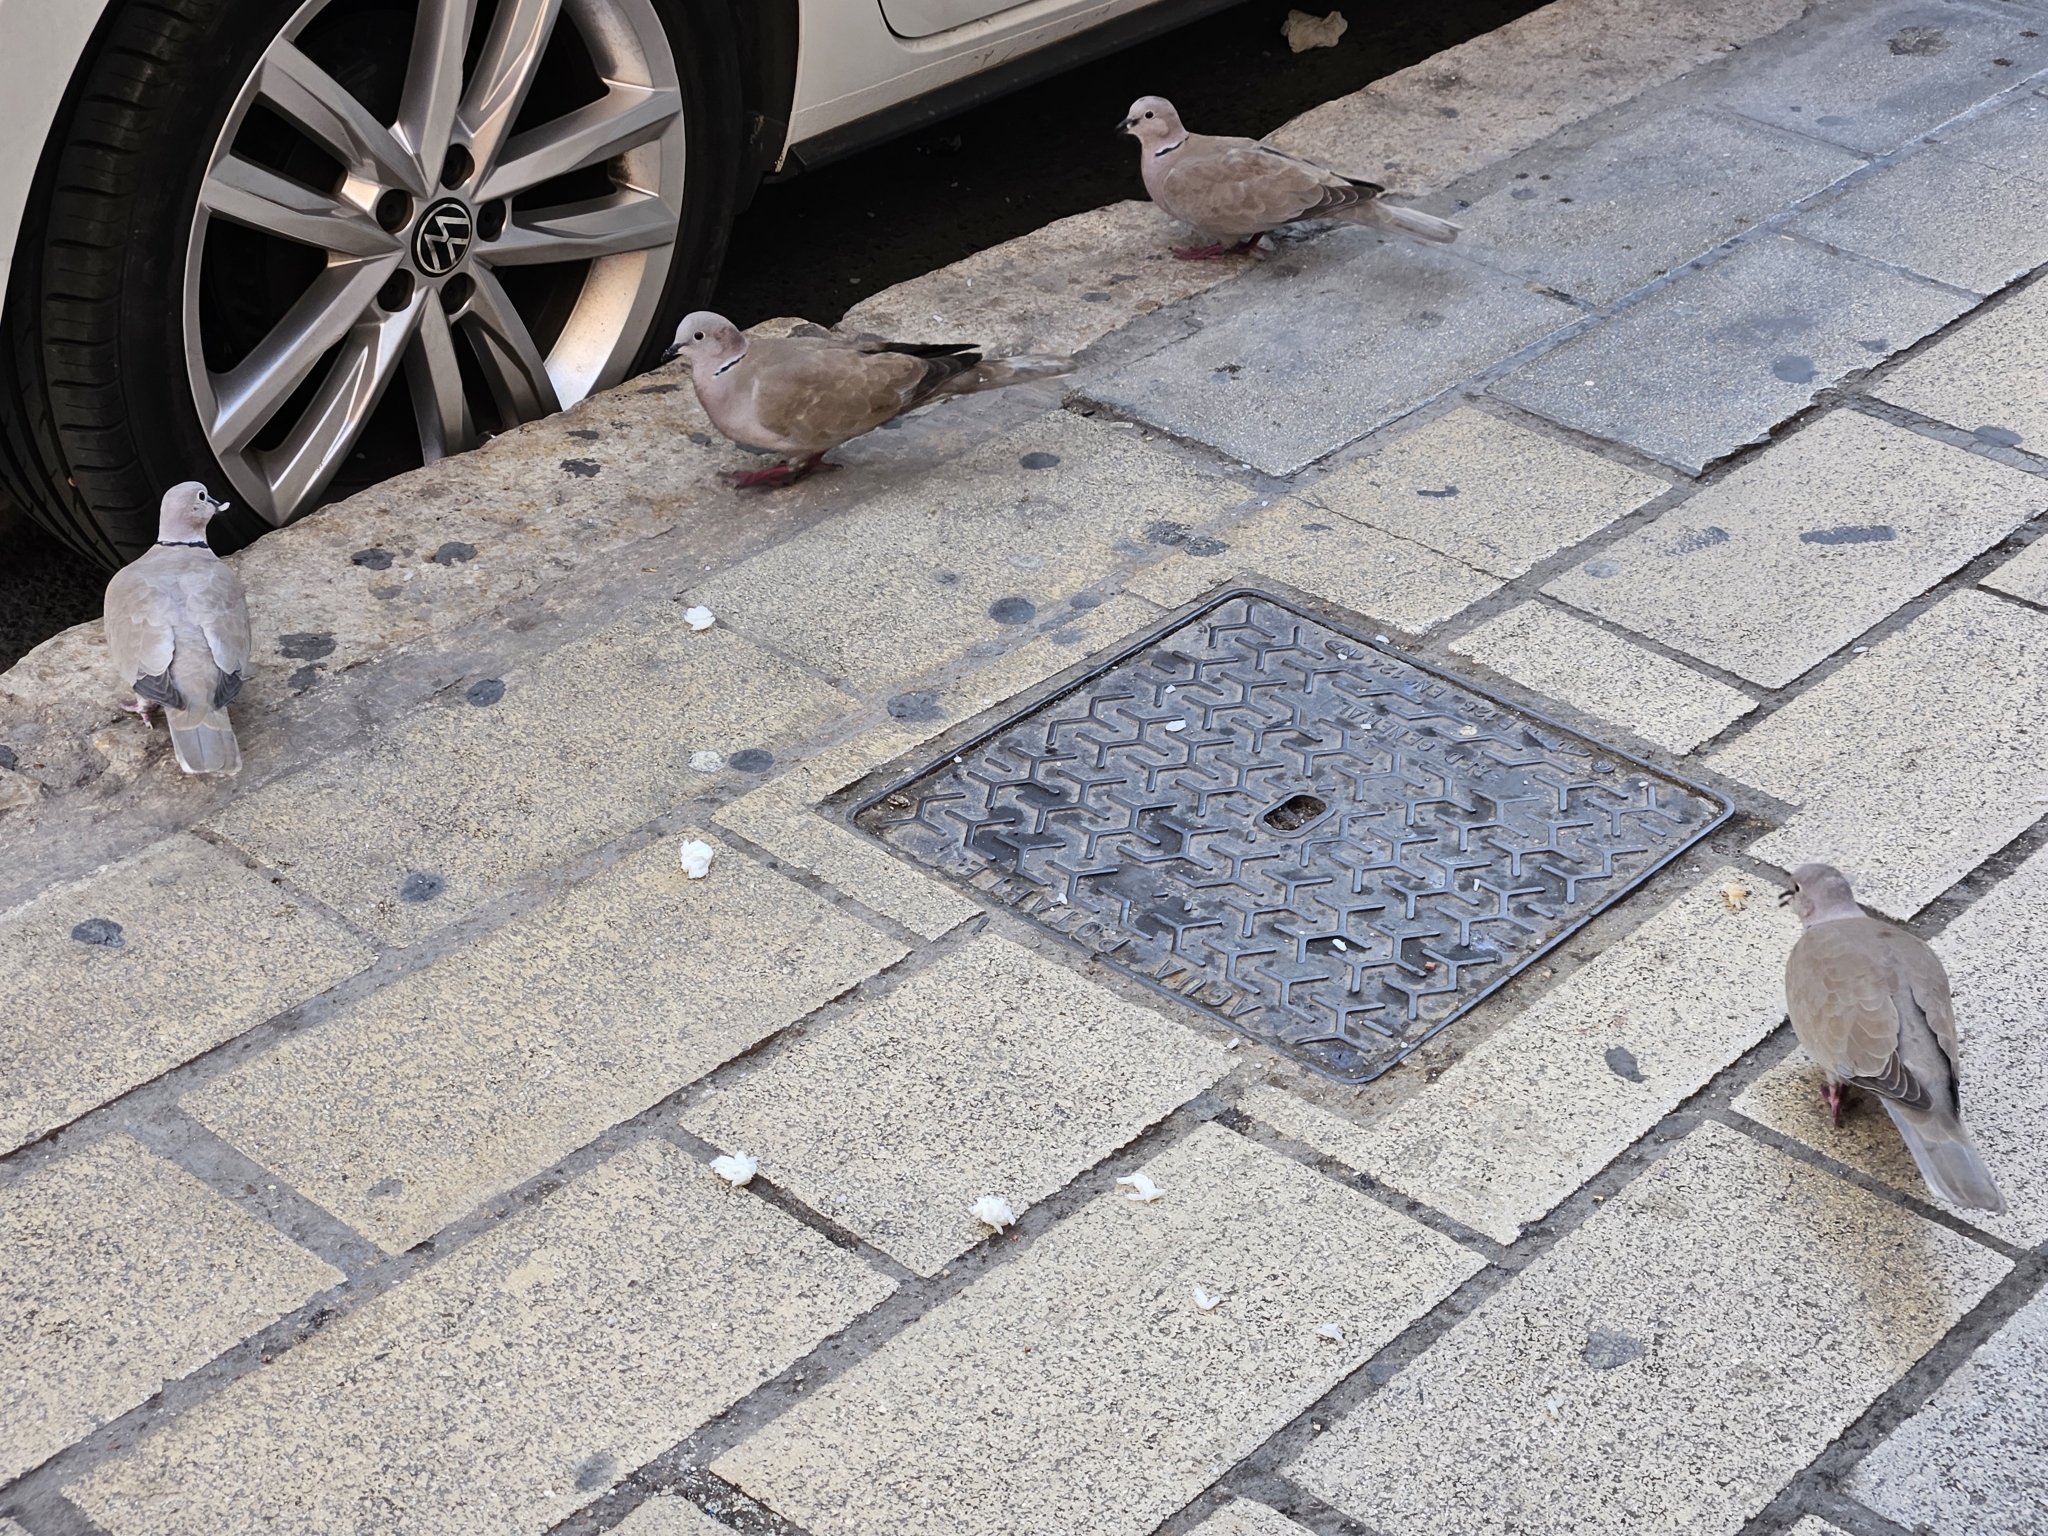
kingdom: Animalia
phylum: Chordata
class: Aves
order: Columbiformes
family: Columbidae
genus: Streptopelia
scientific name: Streptopelia roseogrisea
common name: African collared dove
